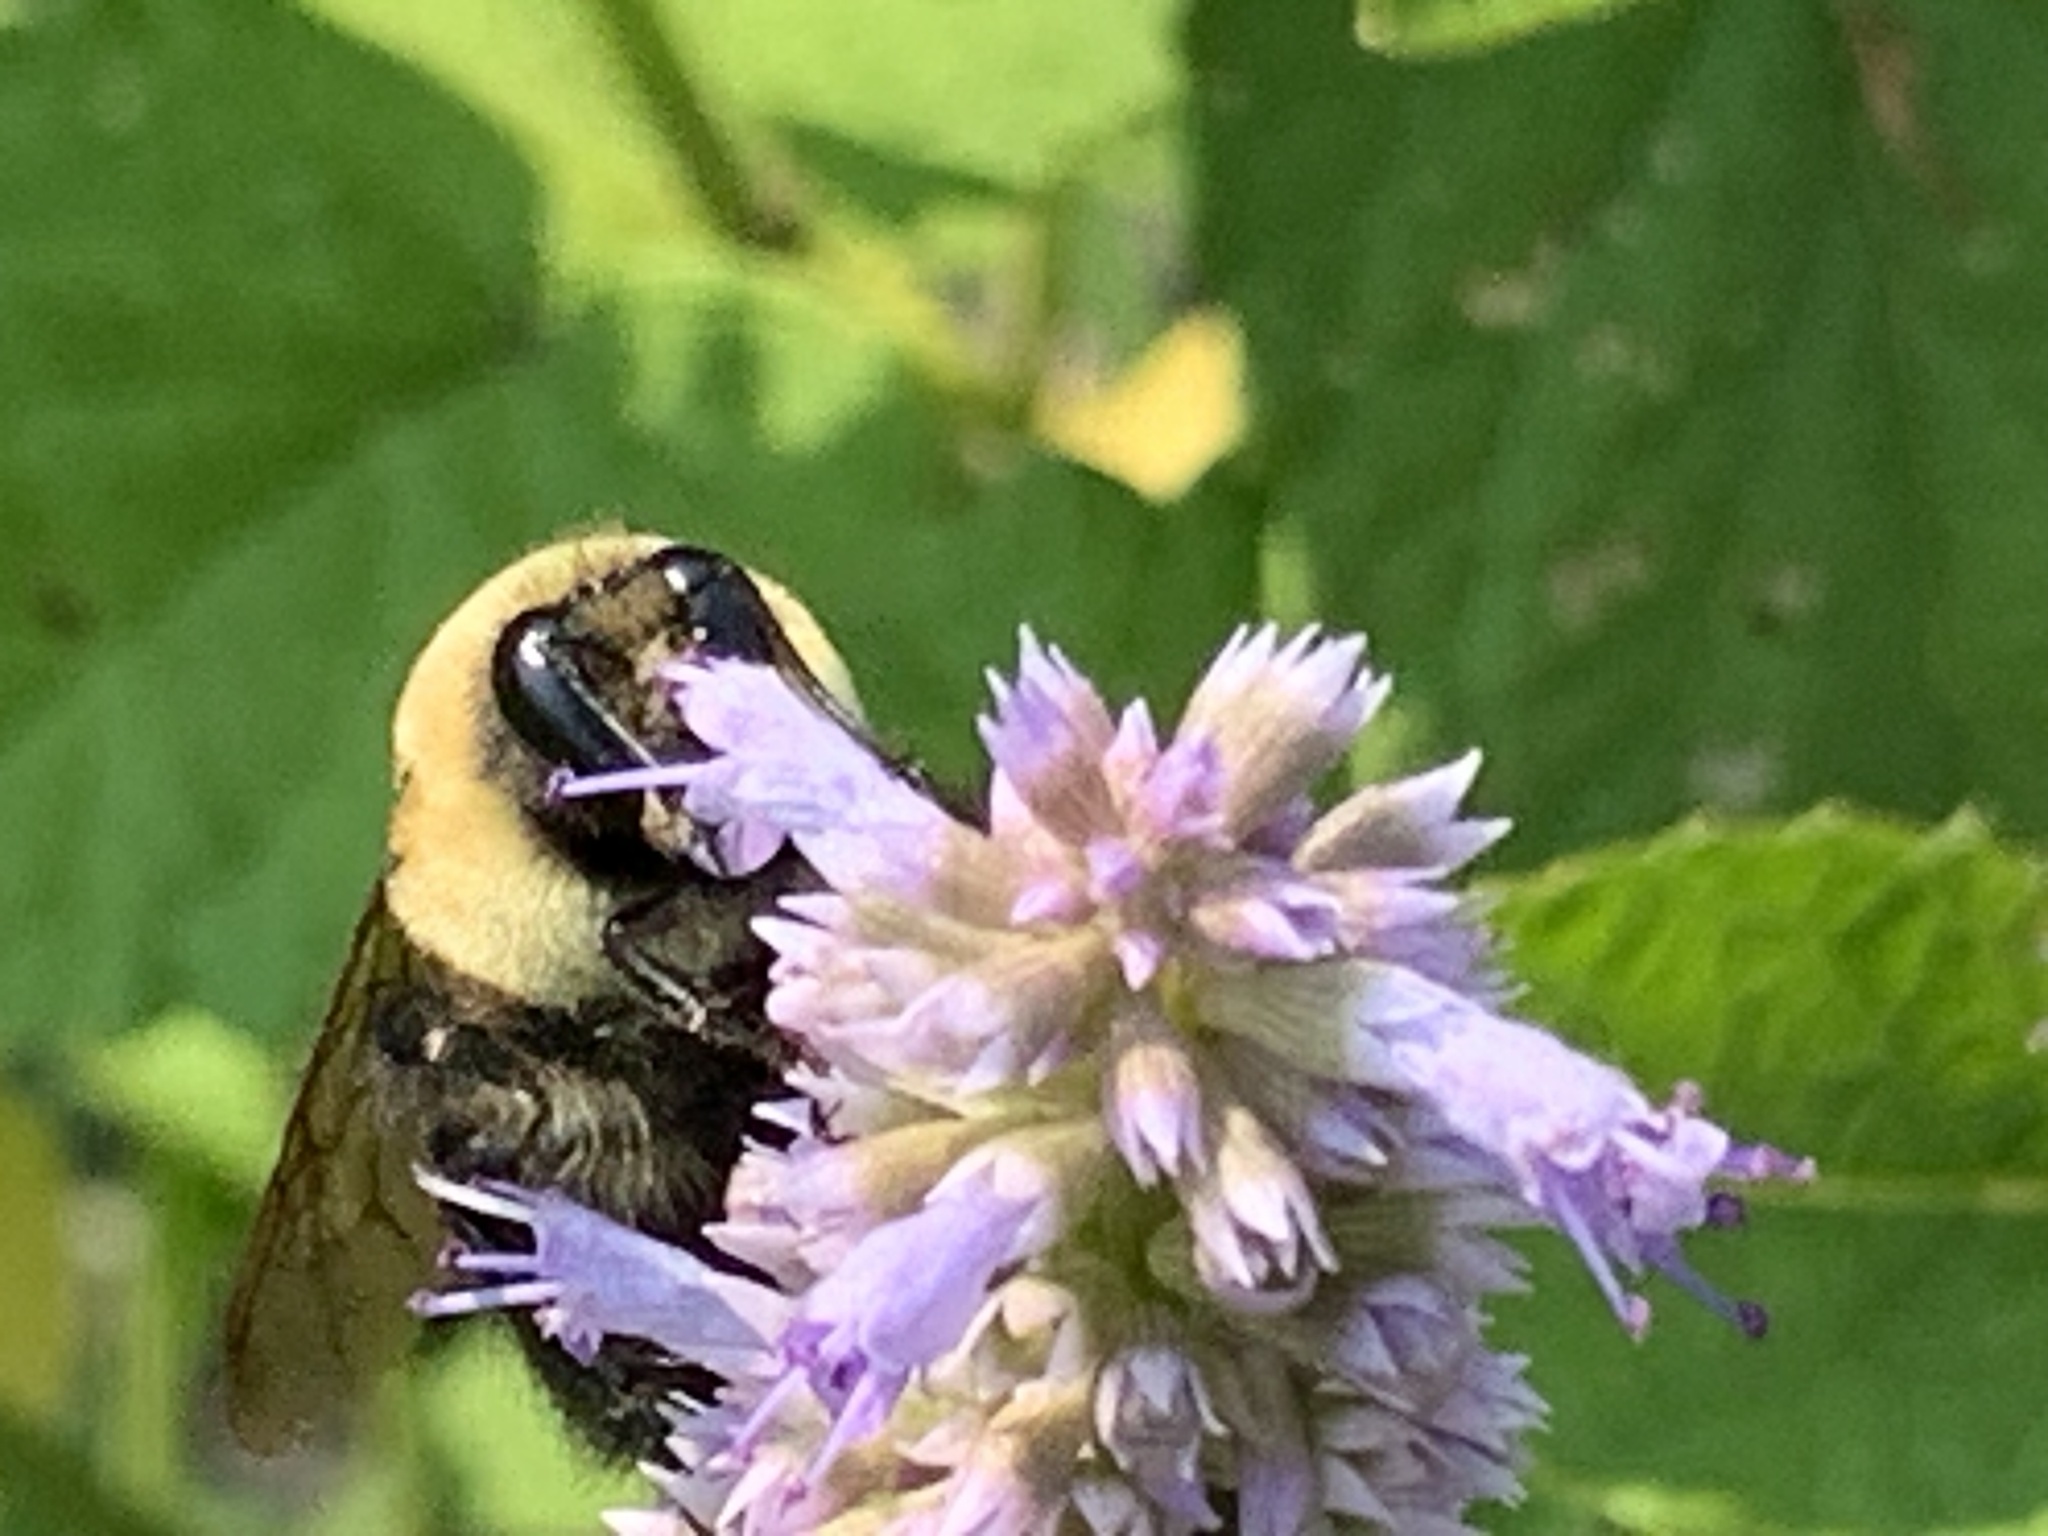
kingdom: Animalia
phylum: Arthropoda
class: Insecta
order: Hymenoptera
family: Apidae
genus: Bombus
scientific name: Bombus griseocollis
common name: Brown-belted bumble bee
